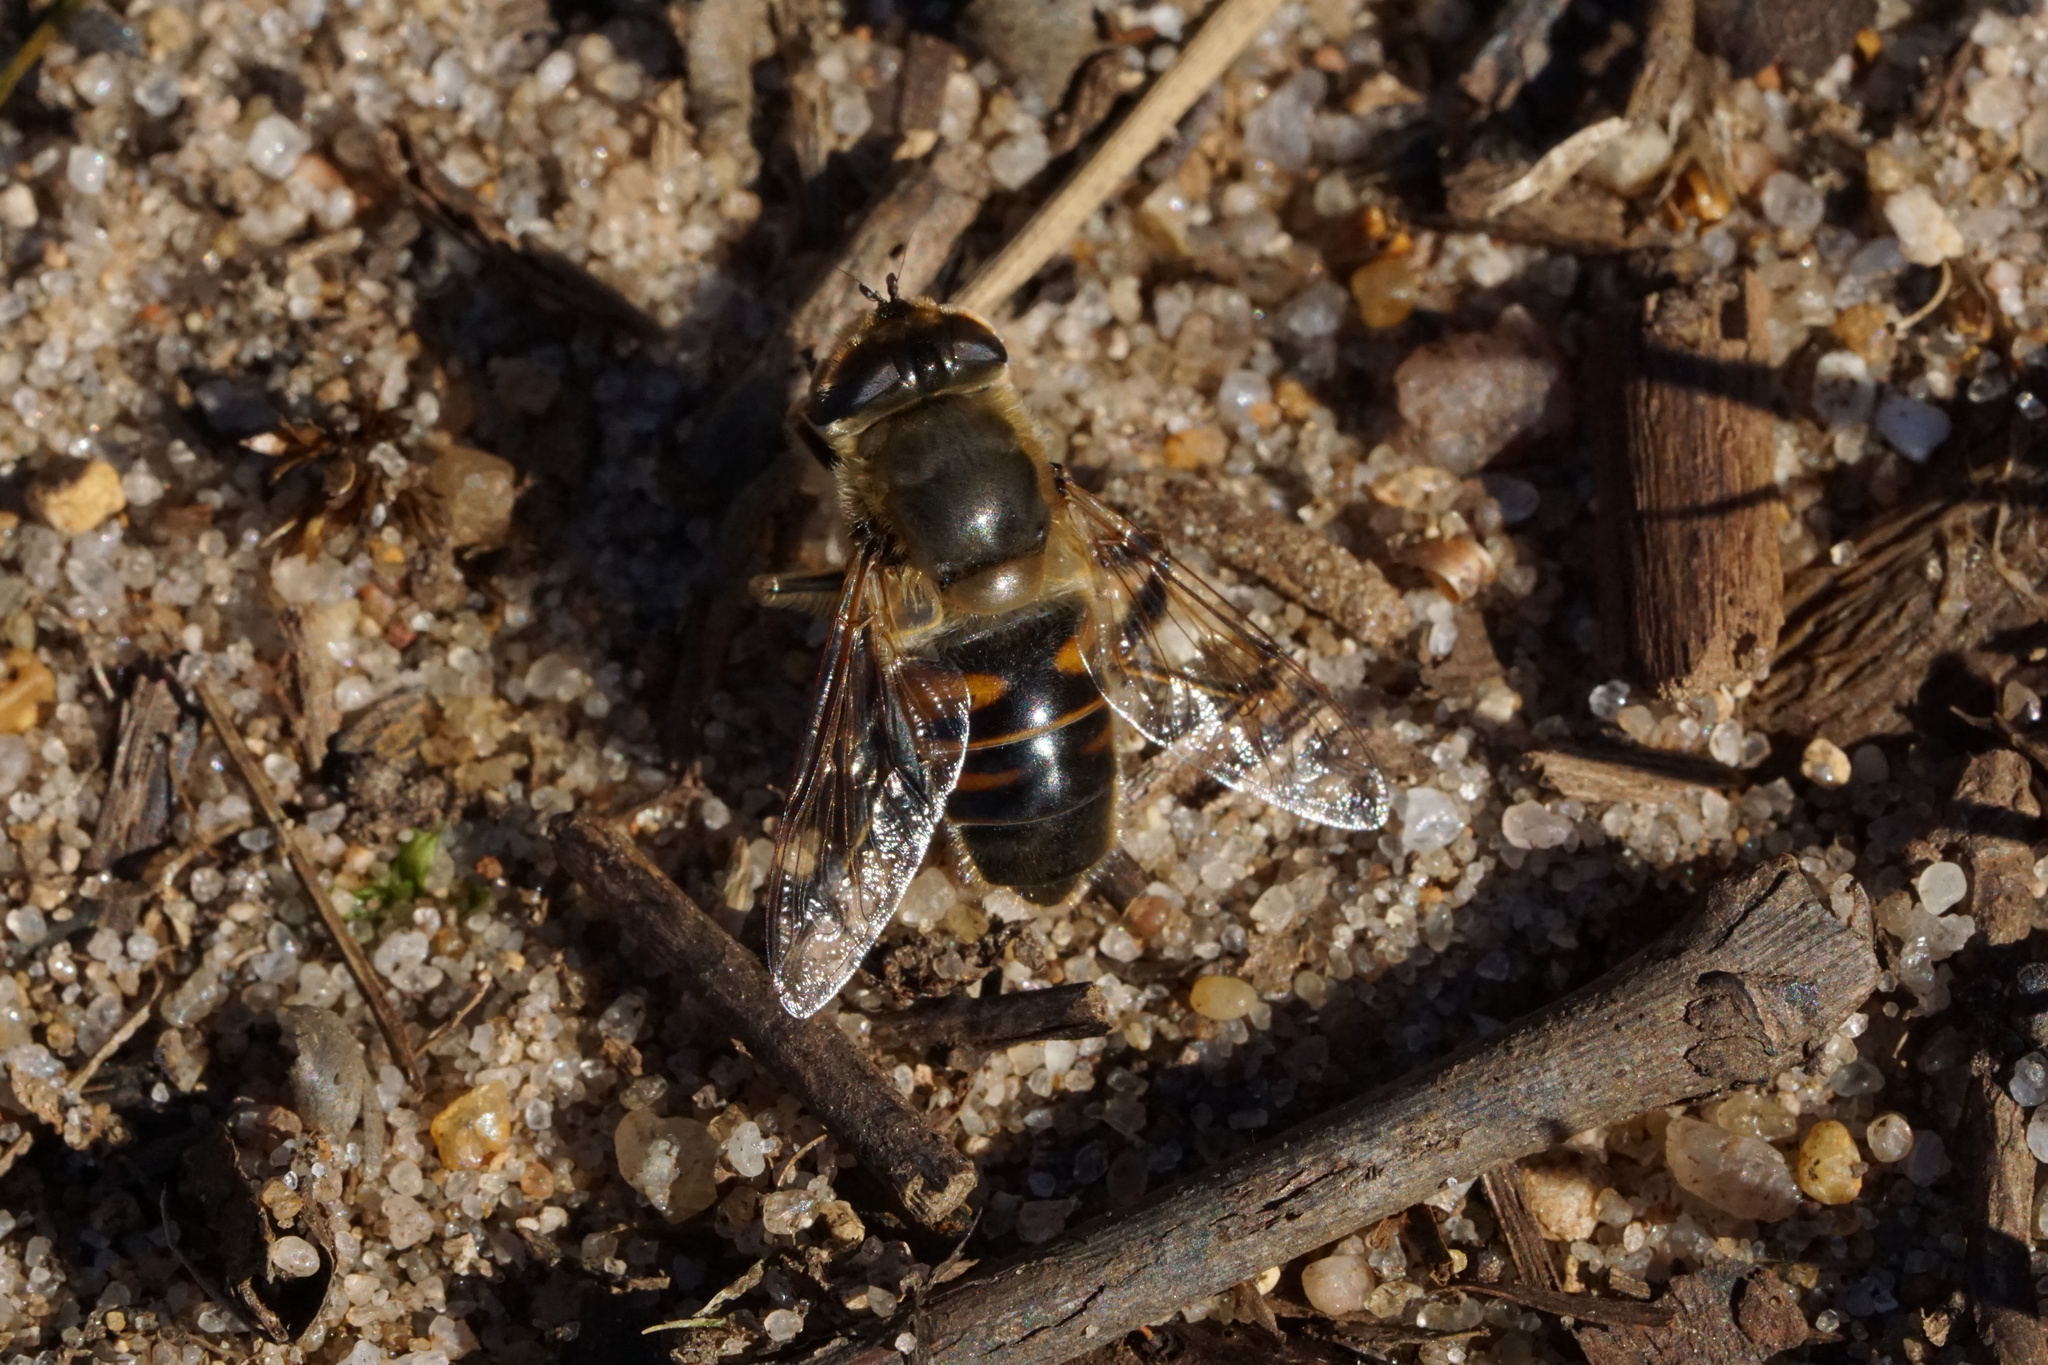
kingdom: Animalia
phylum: Arthropoda
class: Insecta
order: Diptera
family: Syrphidae
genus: Eristalis
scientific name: Eristalis tenax
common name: Drone fly
